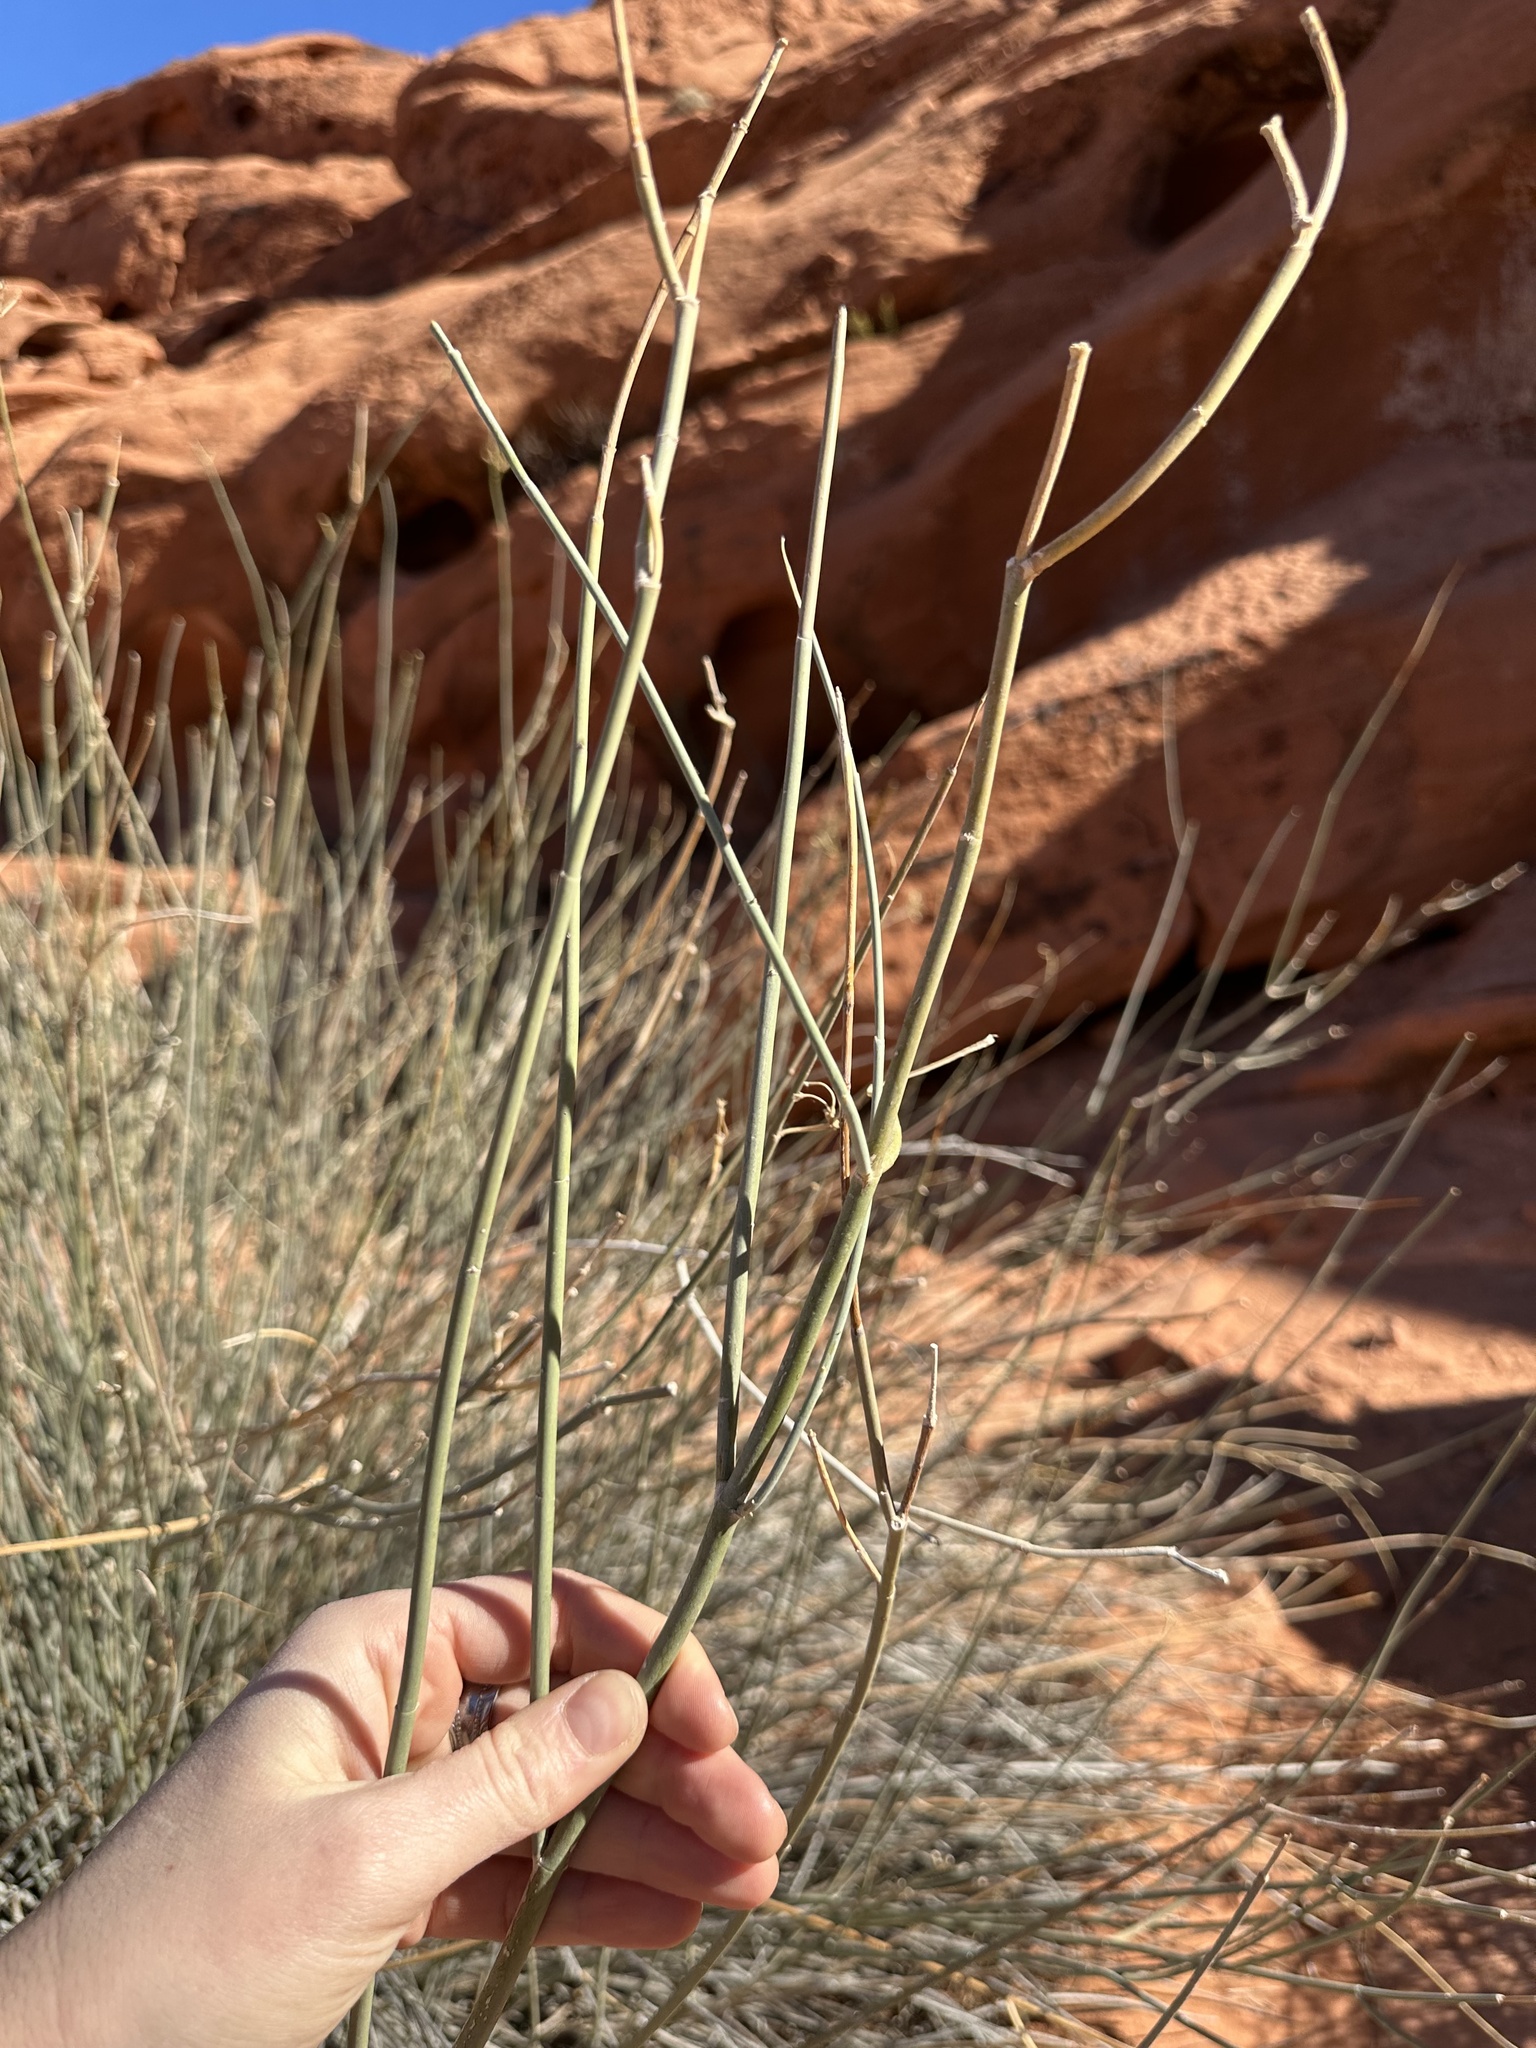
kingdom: Plantae
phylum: Tracheophyta
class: Magnoliopsida
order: Gentianales
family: Apocynaceae
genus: Asclepias
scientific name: Asclepias subulata
